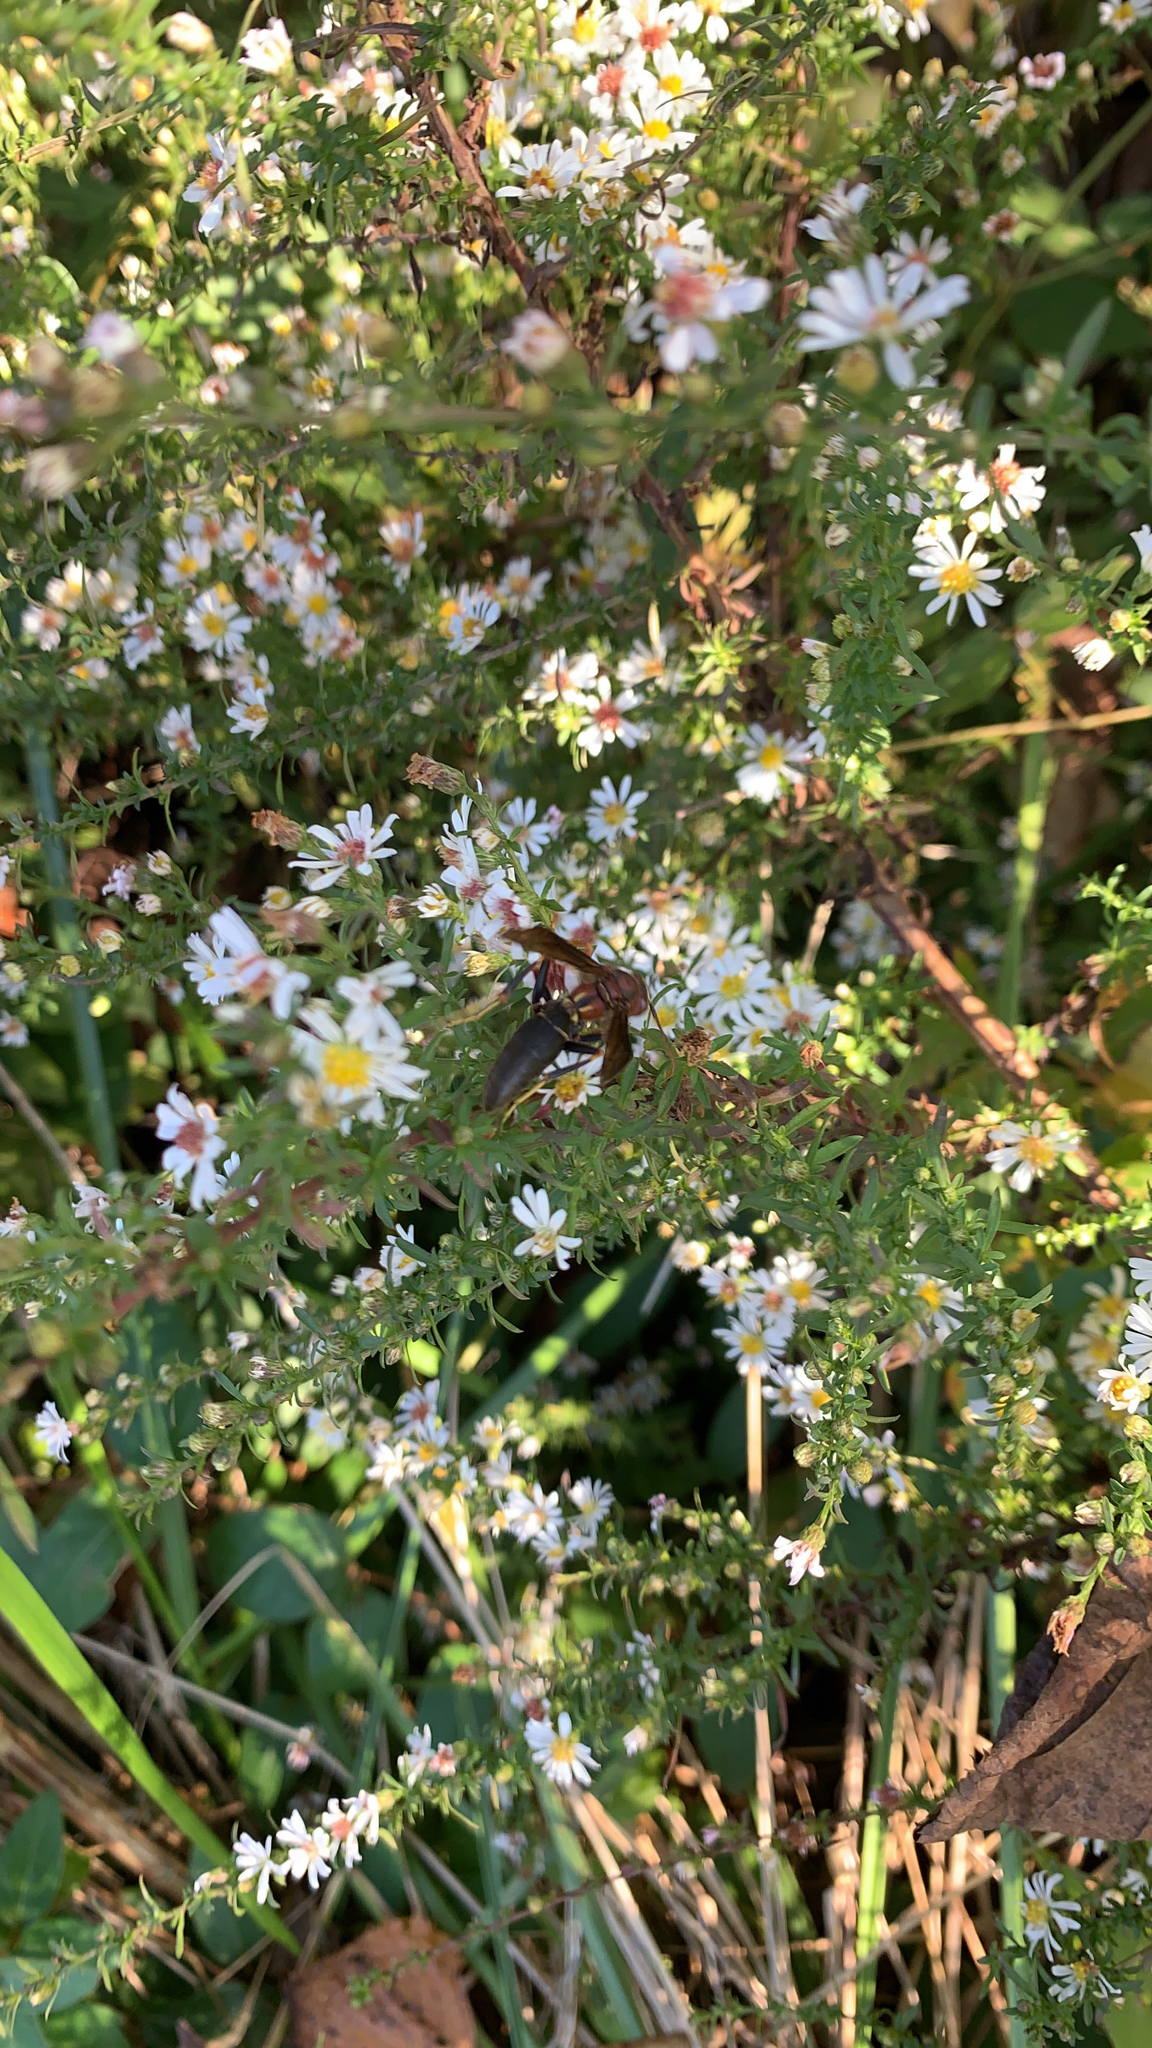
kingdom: Animalia
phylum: Arthropoda
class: Insecta
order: Hymenoptera
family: Eumenidae
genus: Polistes
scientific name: Polistes metricus
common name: Metric paper wasp
